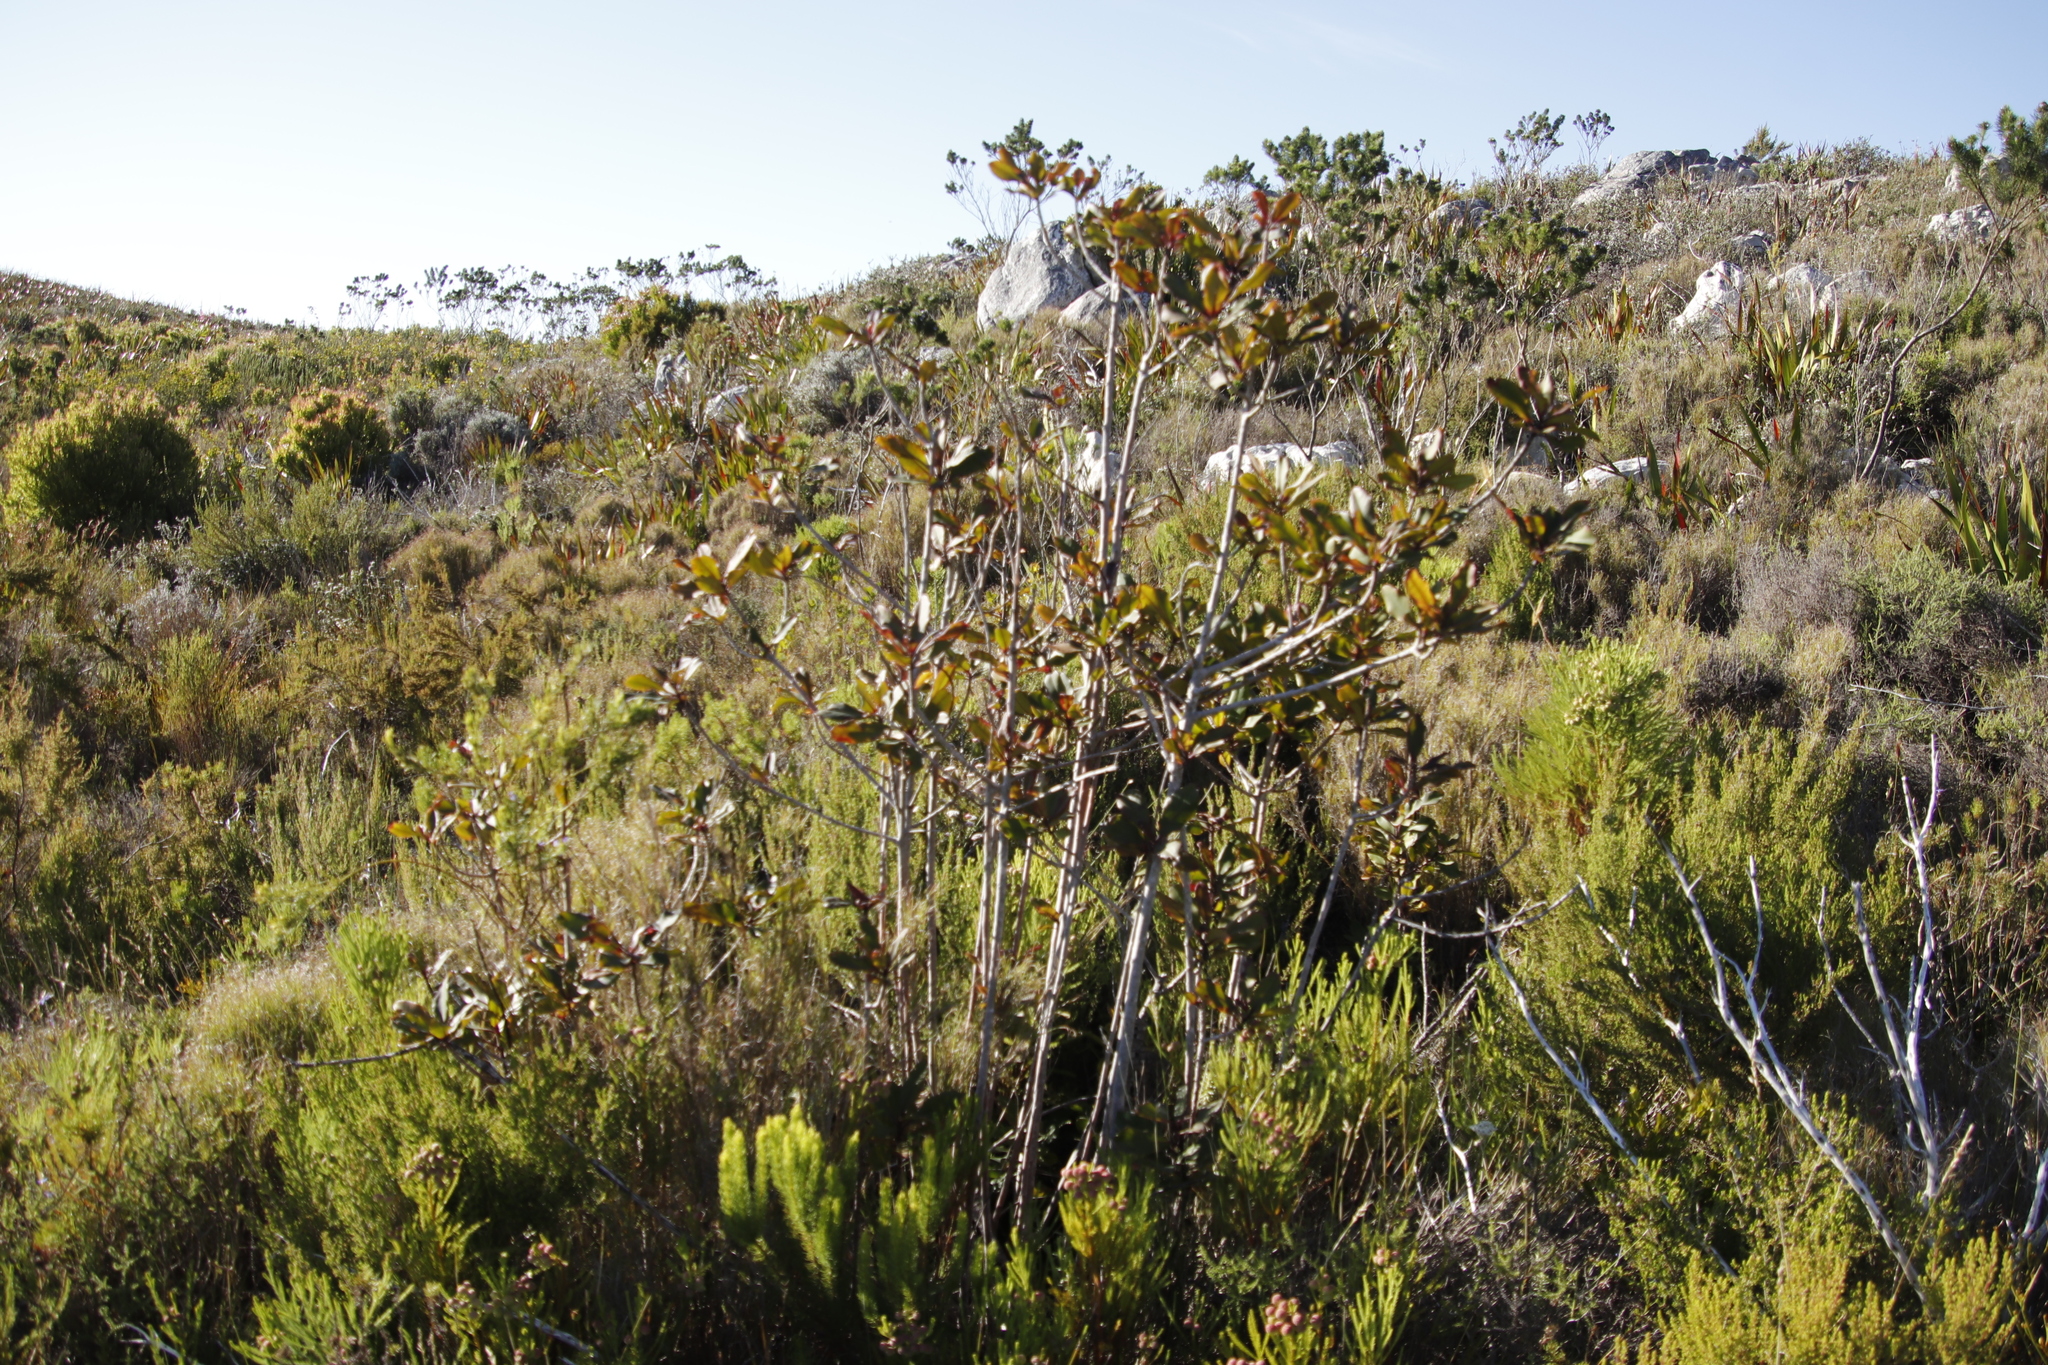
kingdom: Plantae
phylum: Tracheophyta
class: Magnoliopsida
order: Ericales
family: Primulaceae
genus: Myrsine
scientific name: Myrsine melanophloeos
